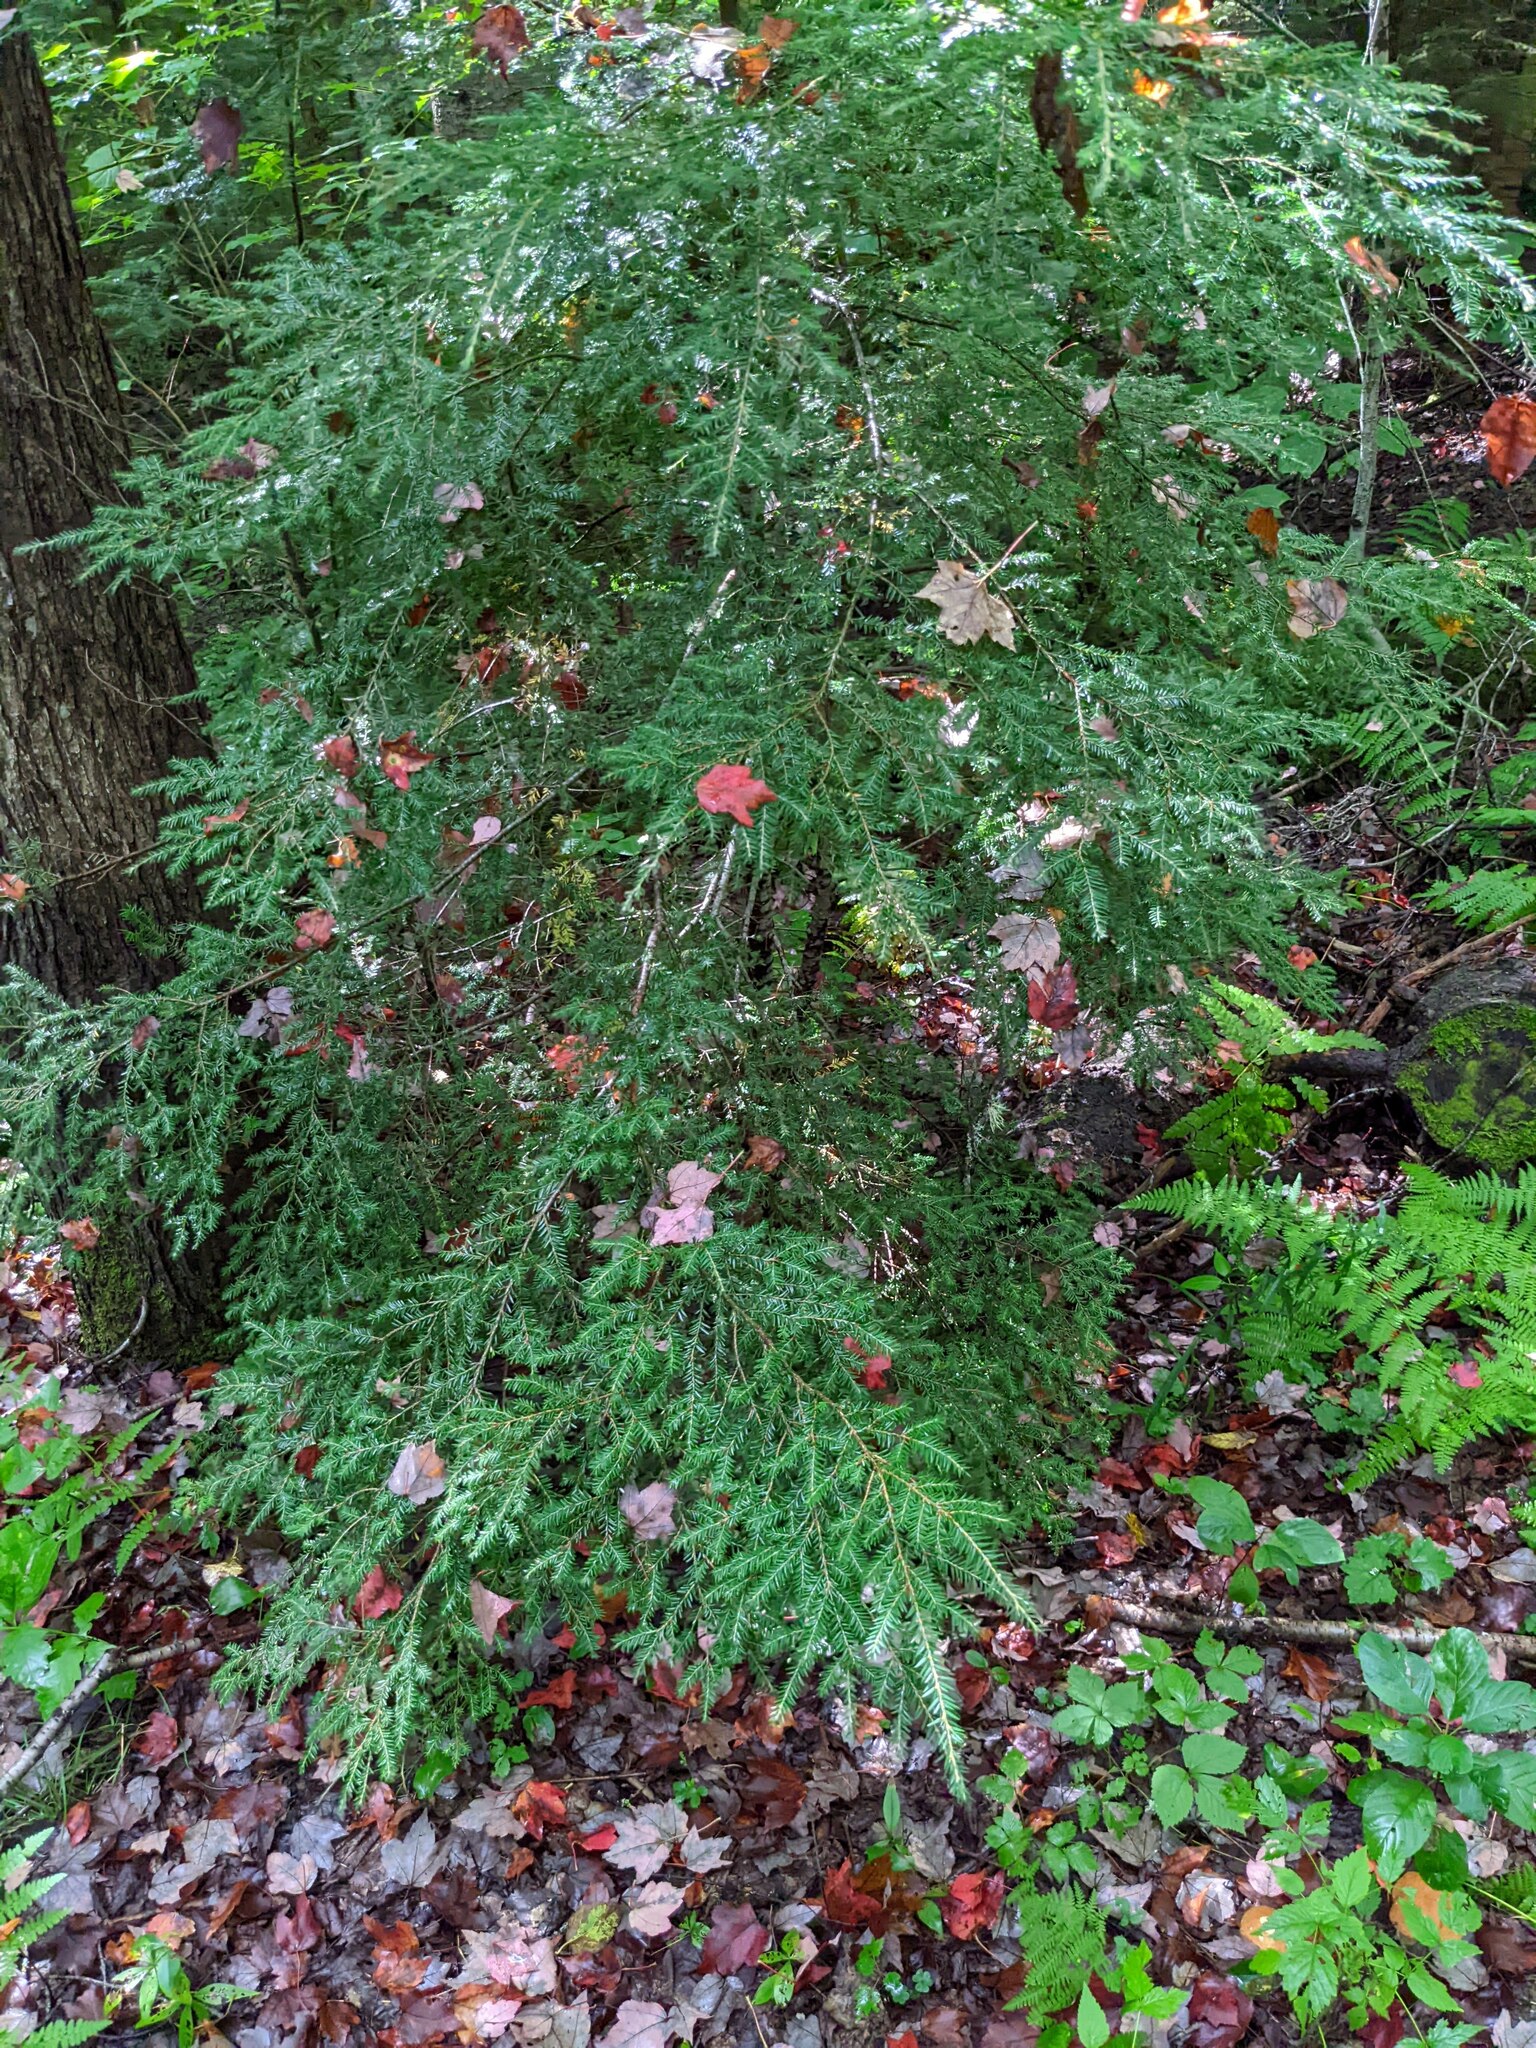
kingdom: Plantae
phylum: Tracheophyta
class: Pinopsida
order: Pinales
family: Pinaceae
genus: Tsuga
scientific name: Tsuga canadensis
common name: Eastern hemlock
